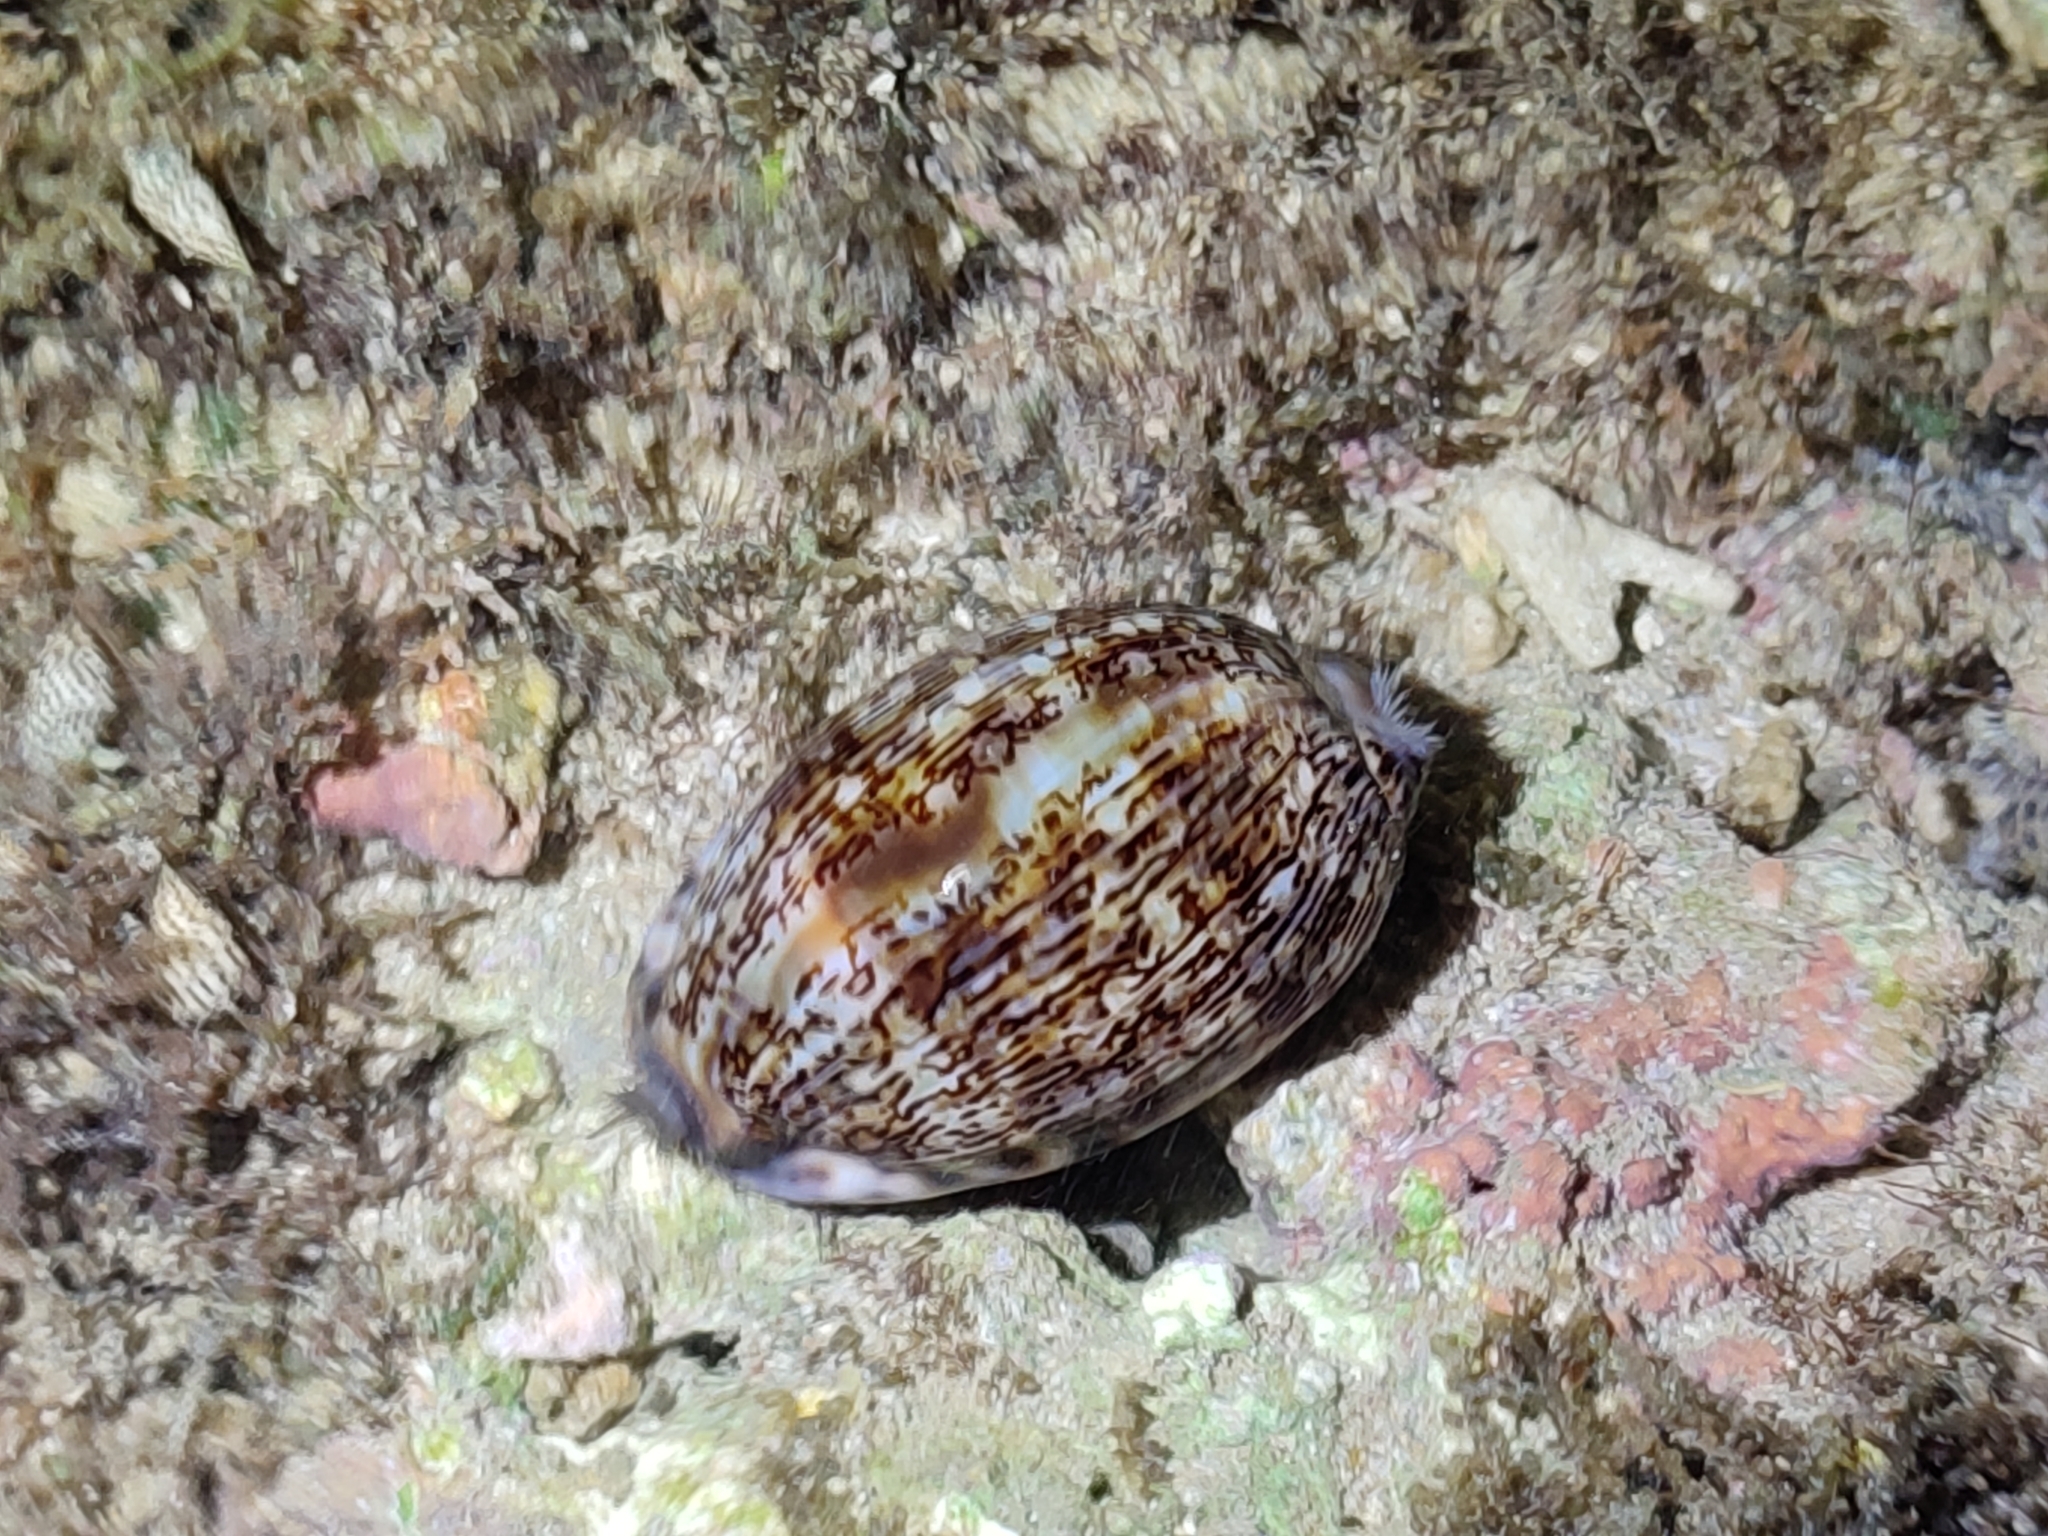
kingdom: Animalia
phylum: Mollusca
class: Gastropoda
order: Littorinimorpha
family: Cypraeidae
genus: Mauritia
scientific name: Mauritia arabica
